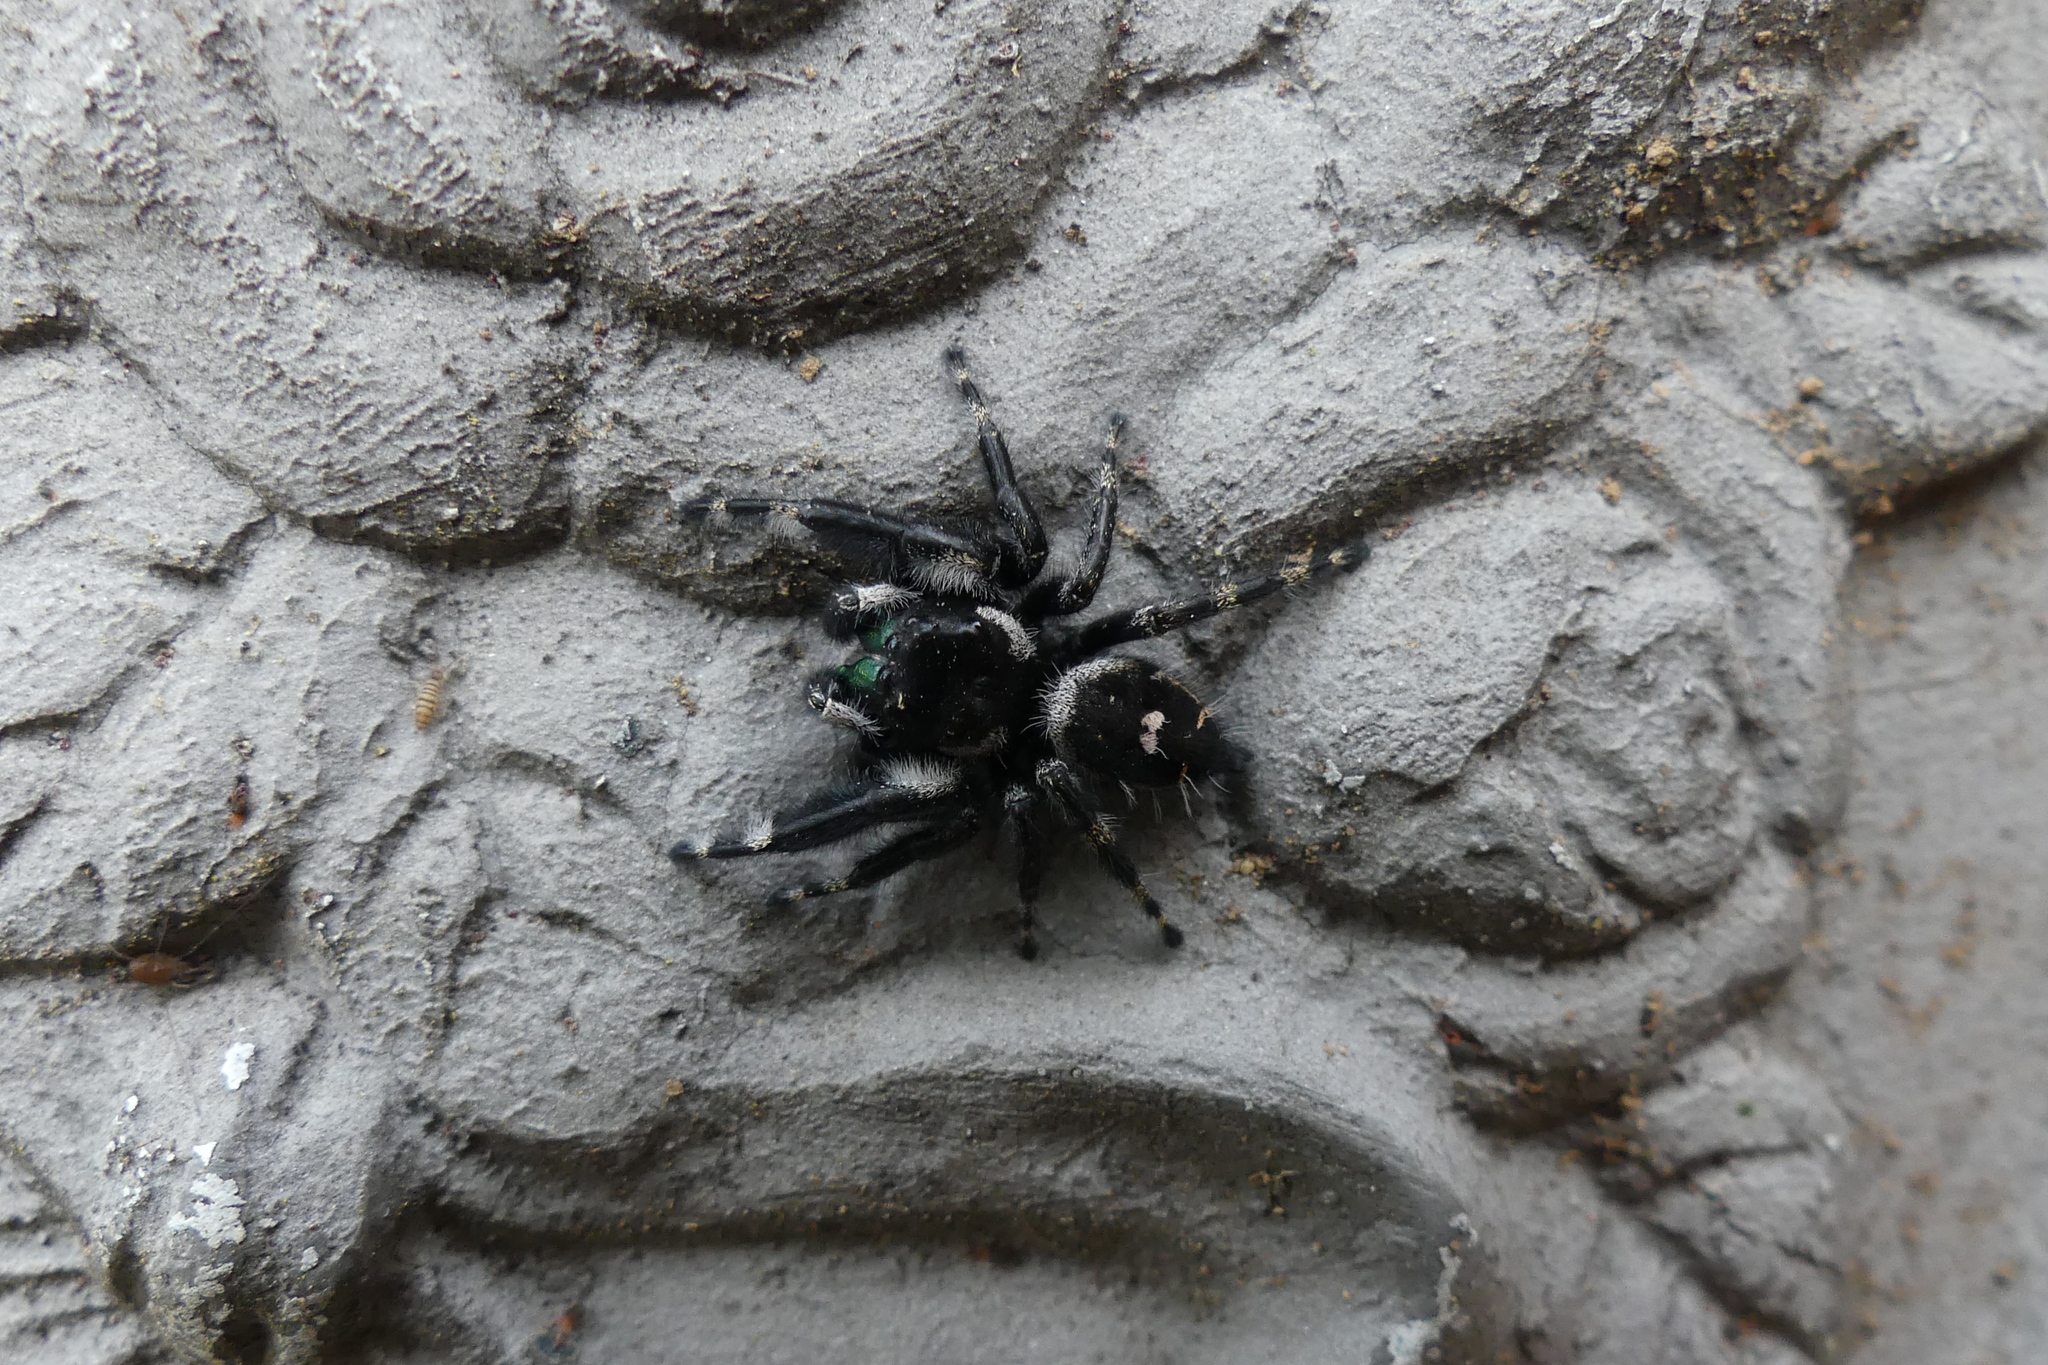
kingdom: Animalia
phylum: Arthropoda
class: Arachnida
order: Araneae
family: Salticidae
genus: Phidippus
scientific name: Phidippus audax
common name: Bold jumper
